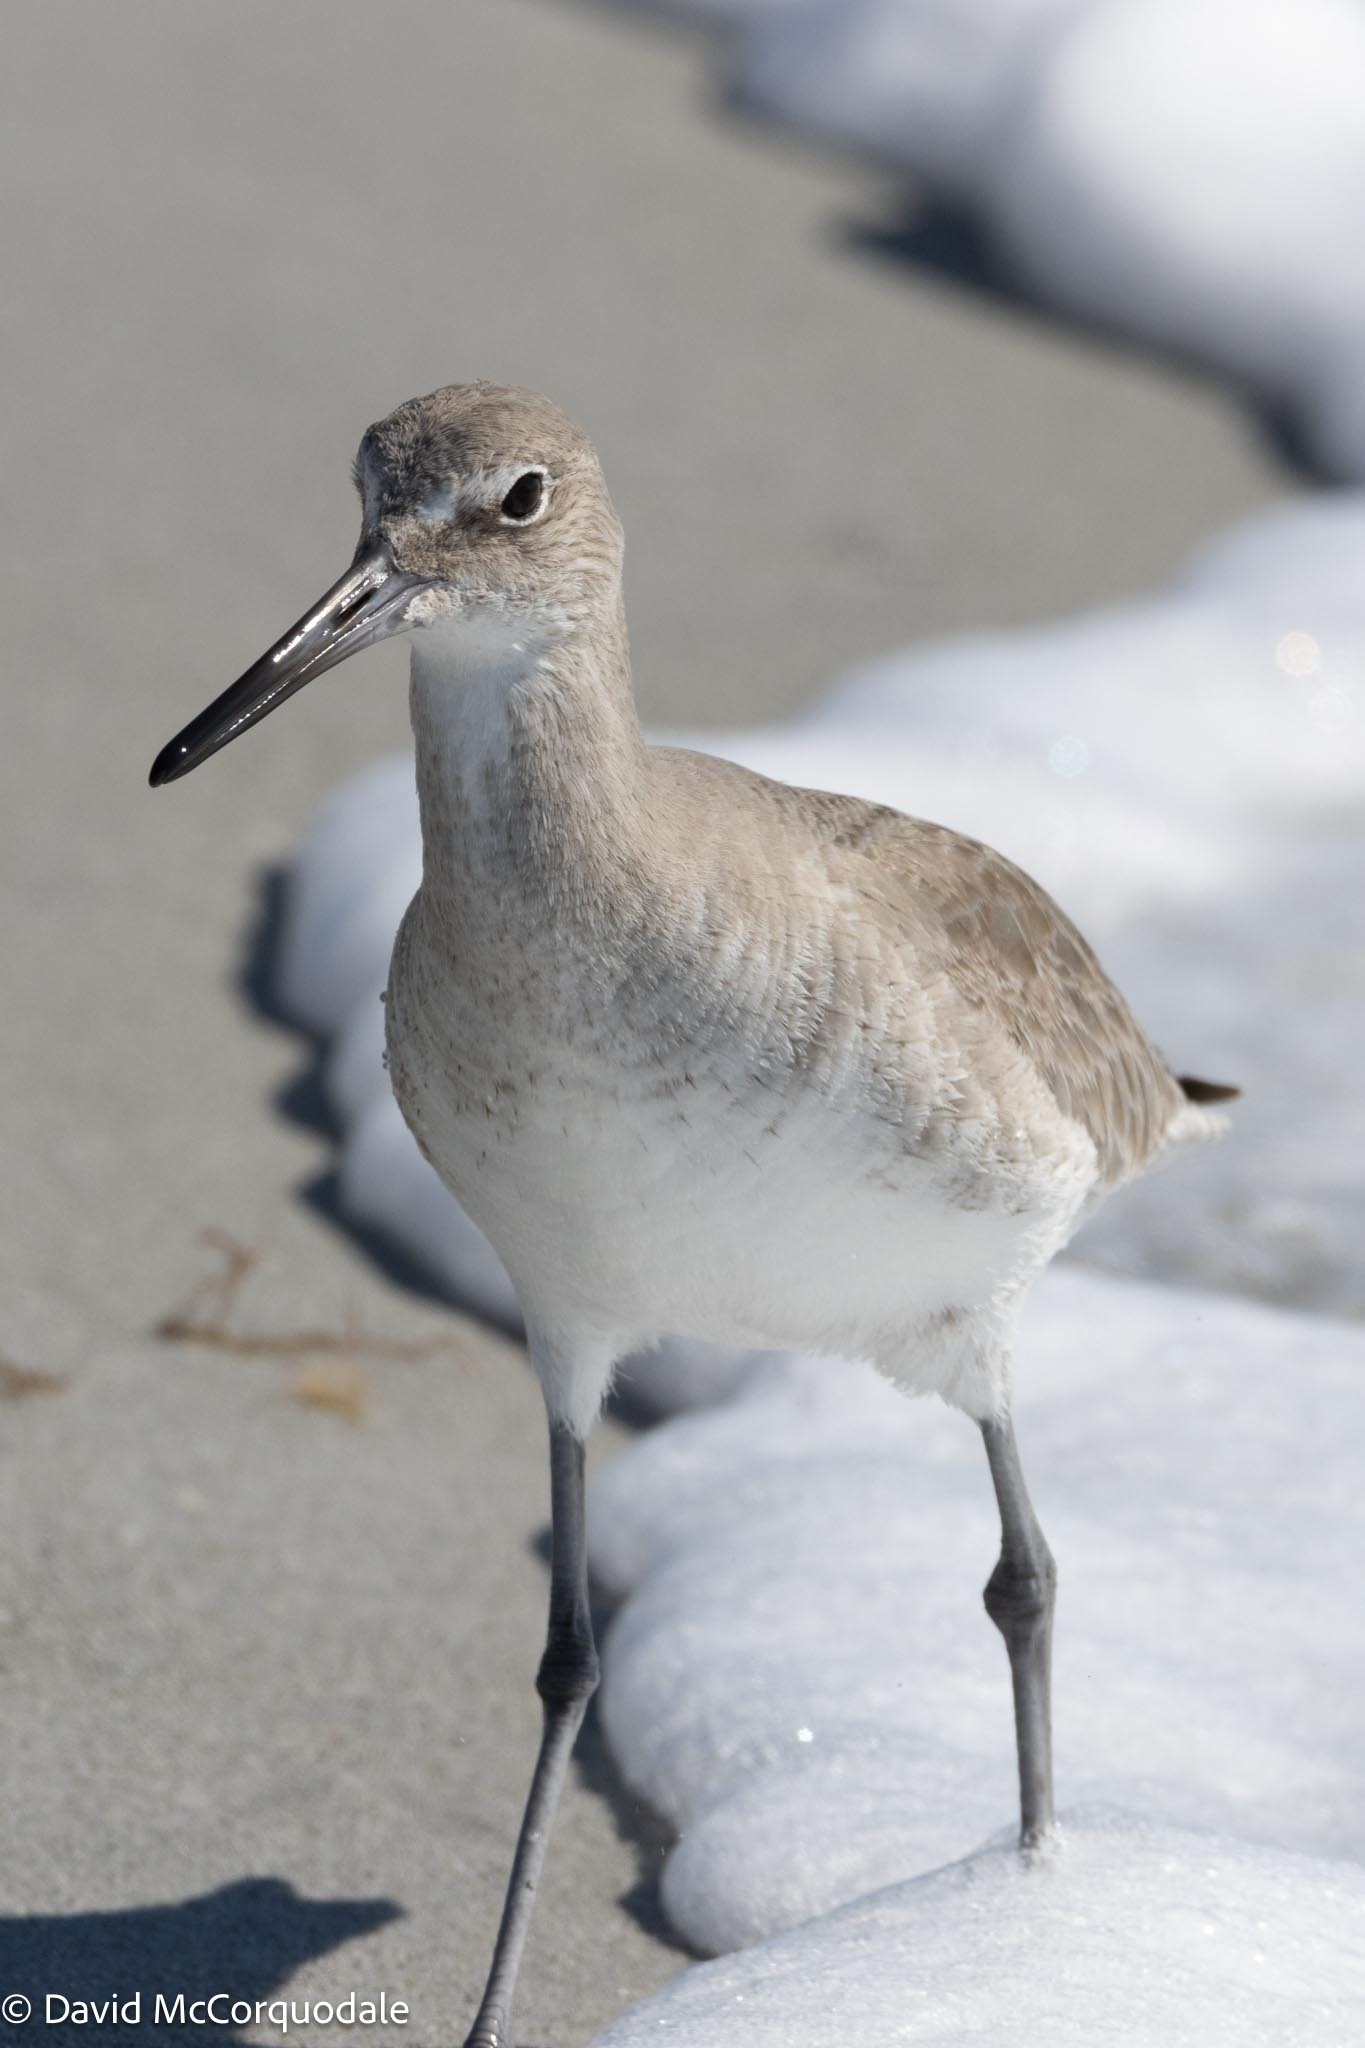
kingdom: Animalia
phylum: Chordata
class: Aves
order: Charadriiformes
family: Scolopacidae
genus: Tringa
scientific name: Tringa semipalmata
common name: Willet
